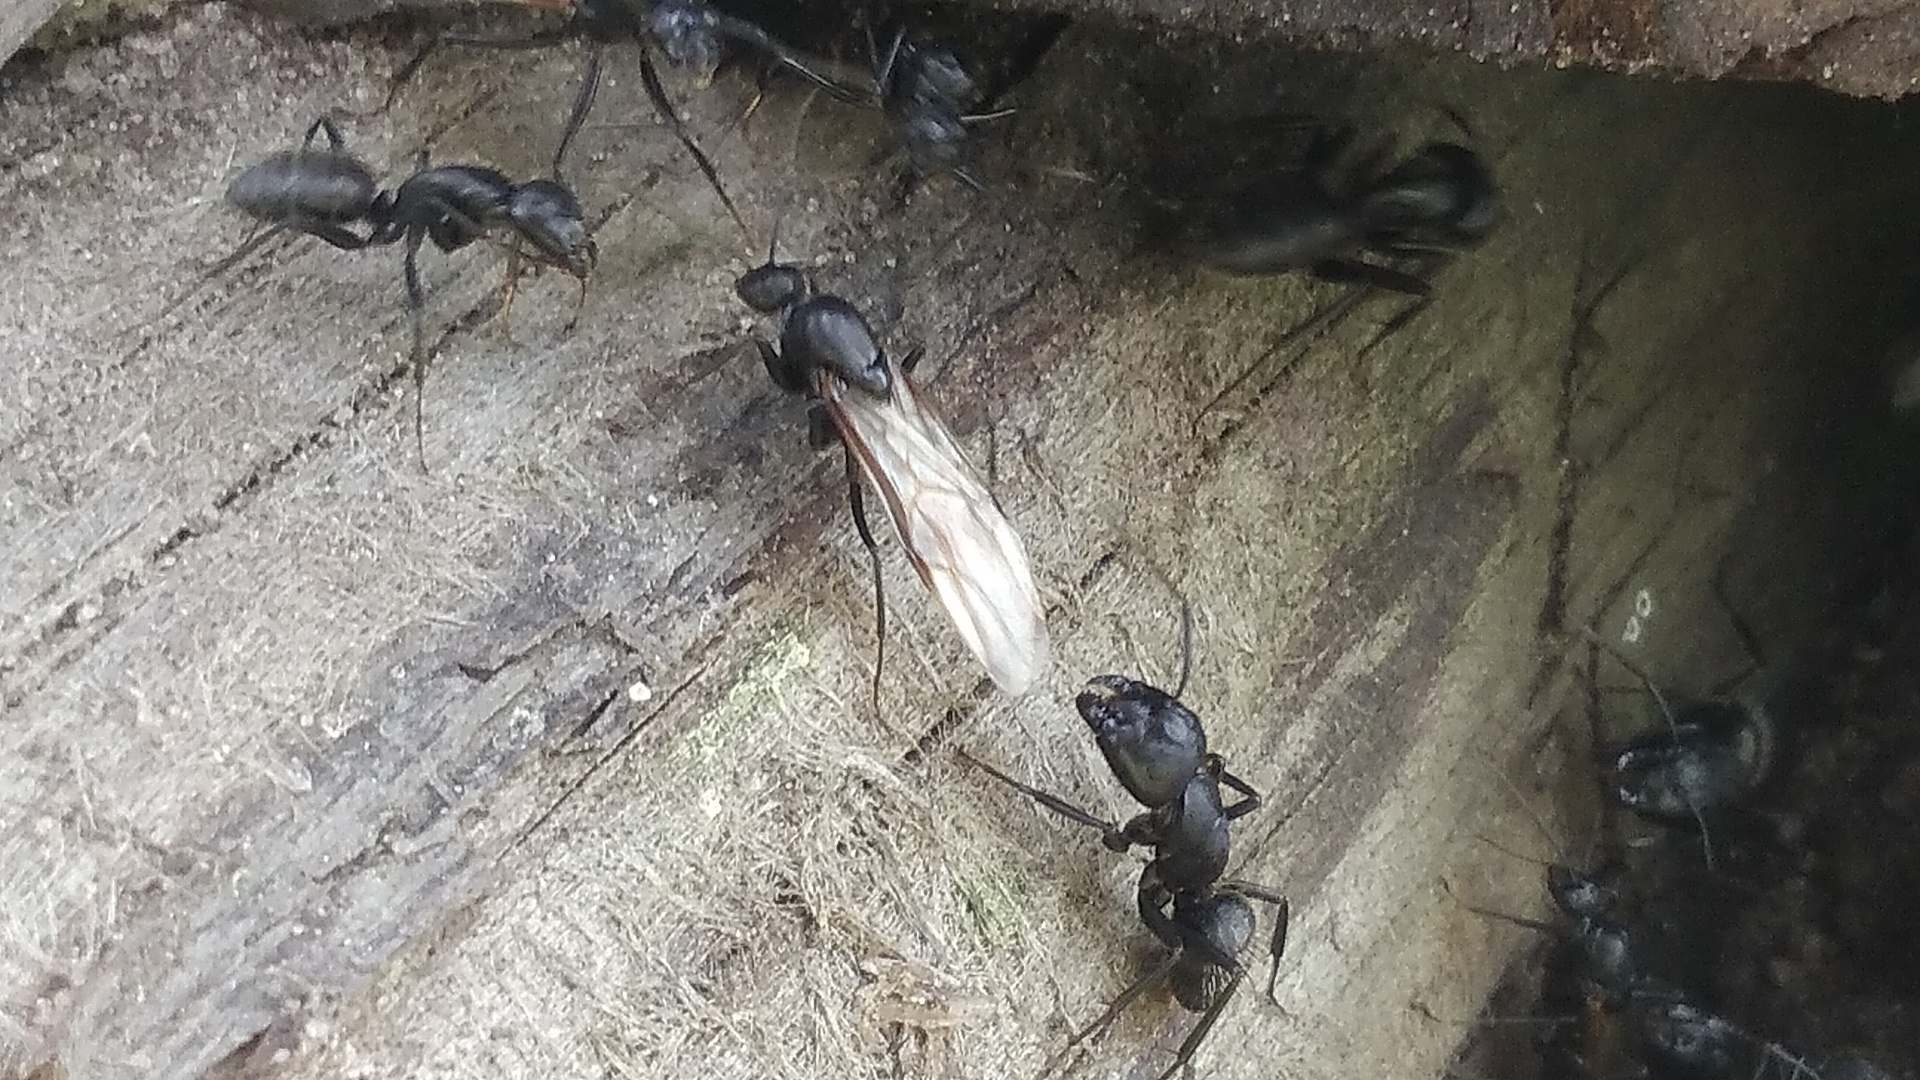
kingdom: Animalia
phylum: Arthropoda
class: Insecta
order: Hymenoptera
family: Formicidae
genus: Camponotus
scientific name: Camponotus vagus
